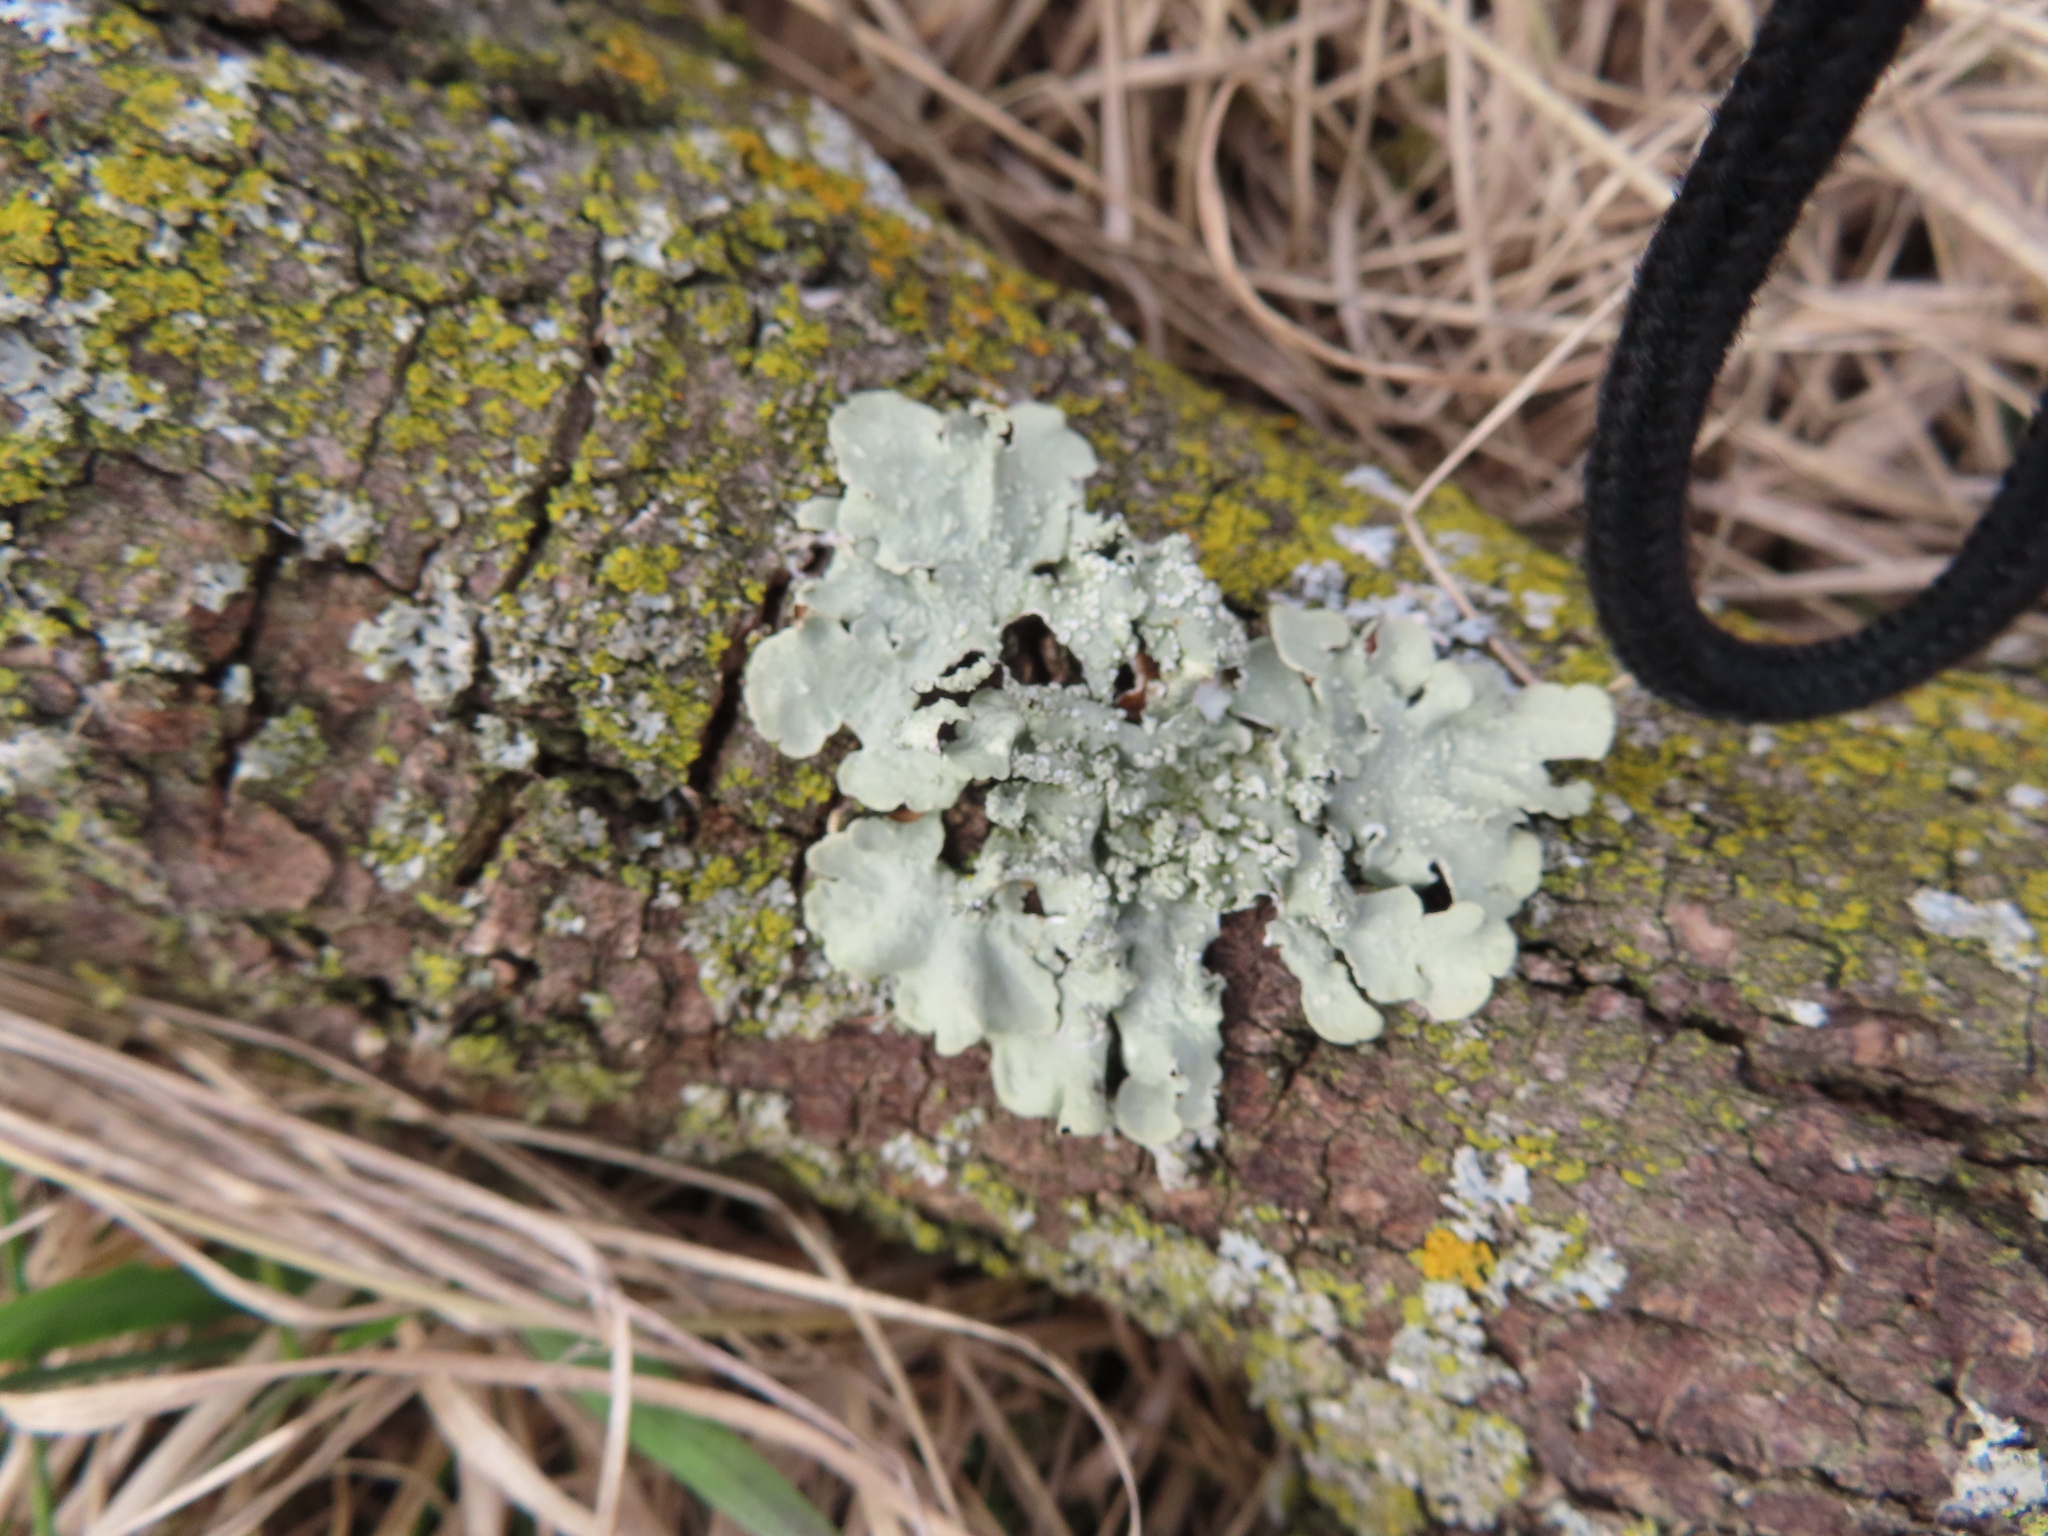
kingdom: Fungi
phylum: Ascomycota
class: Lecanoromycetes
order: Lecanorales
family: Parmeliaceae
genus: Flavoparmelia
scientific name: Flavoparmelia caperata
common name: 40-mile per hour lichen
